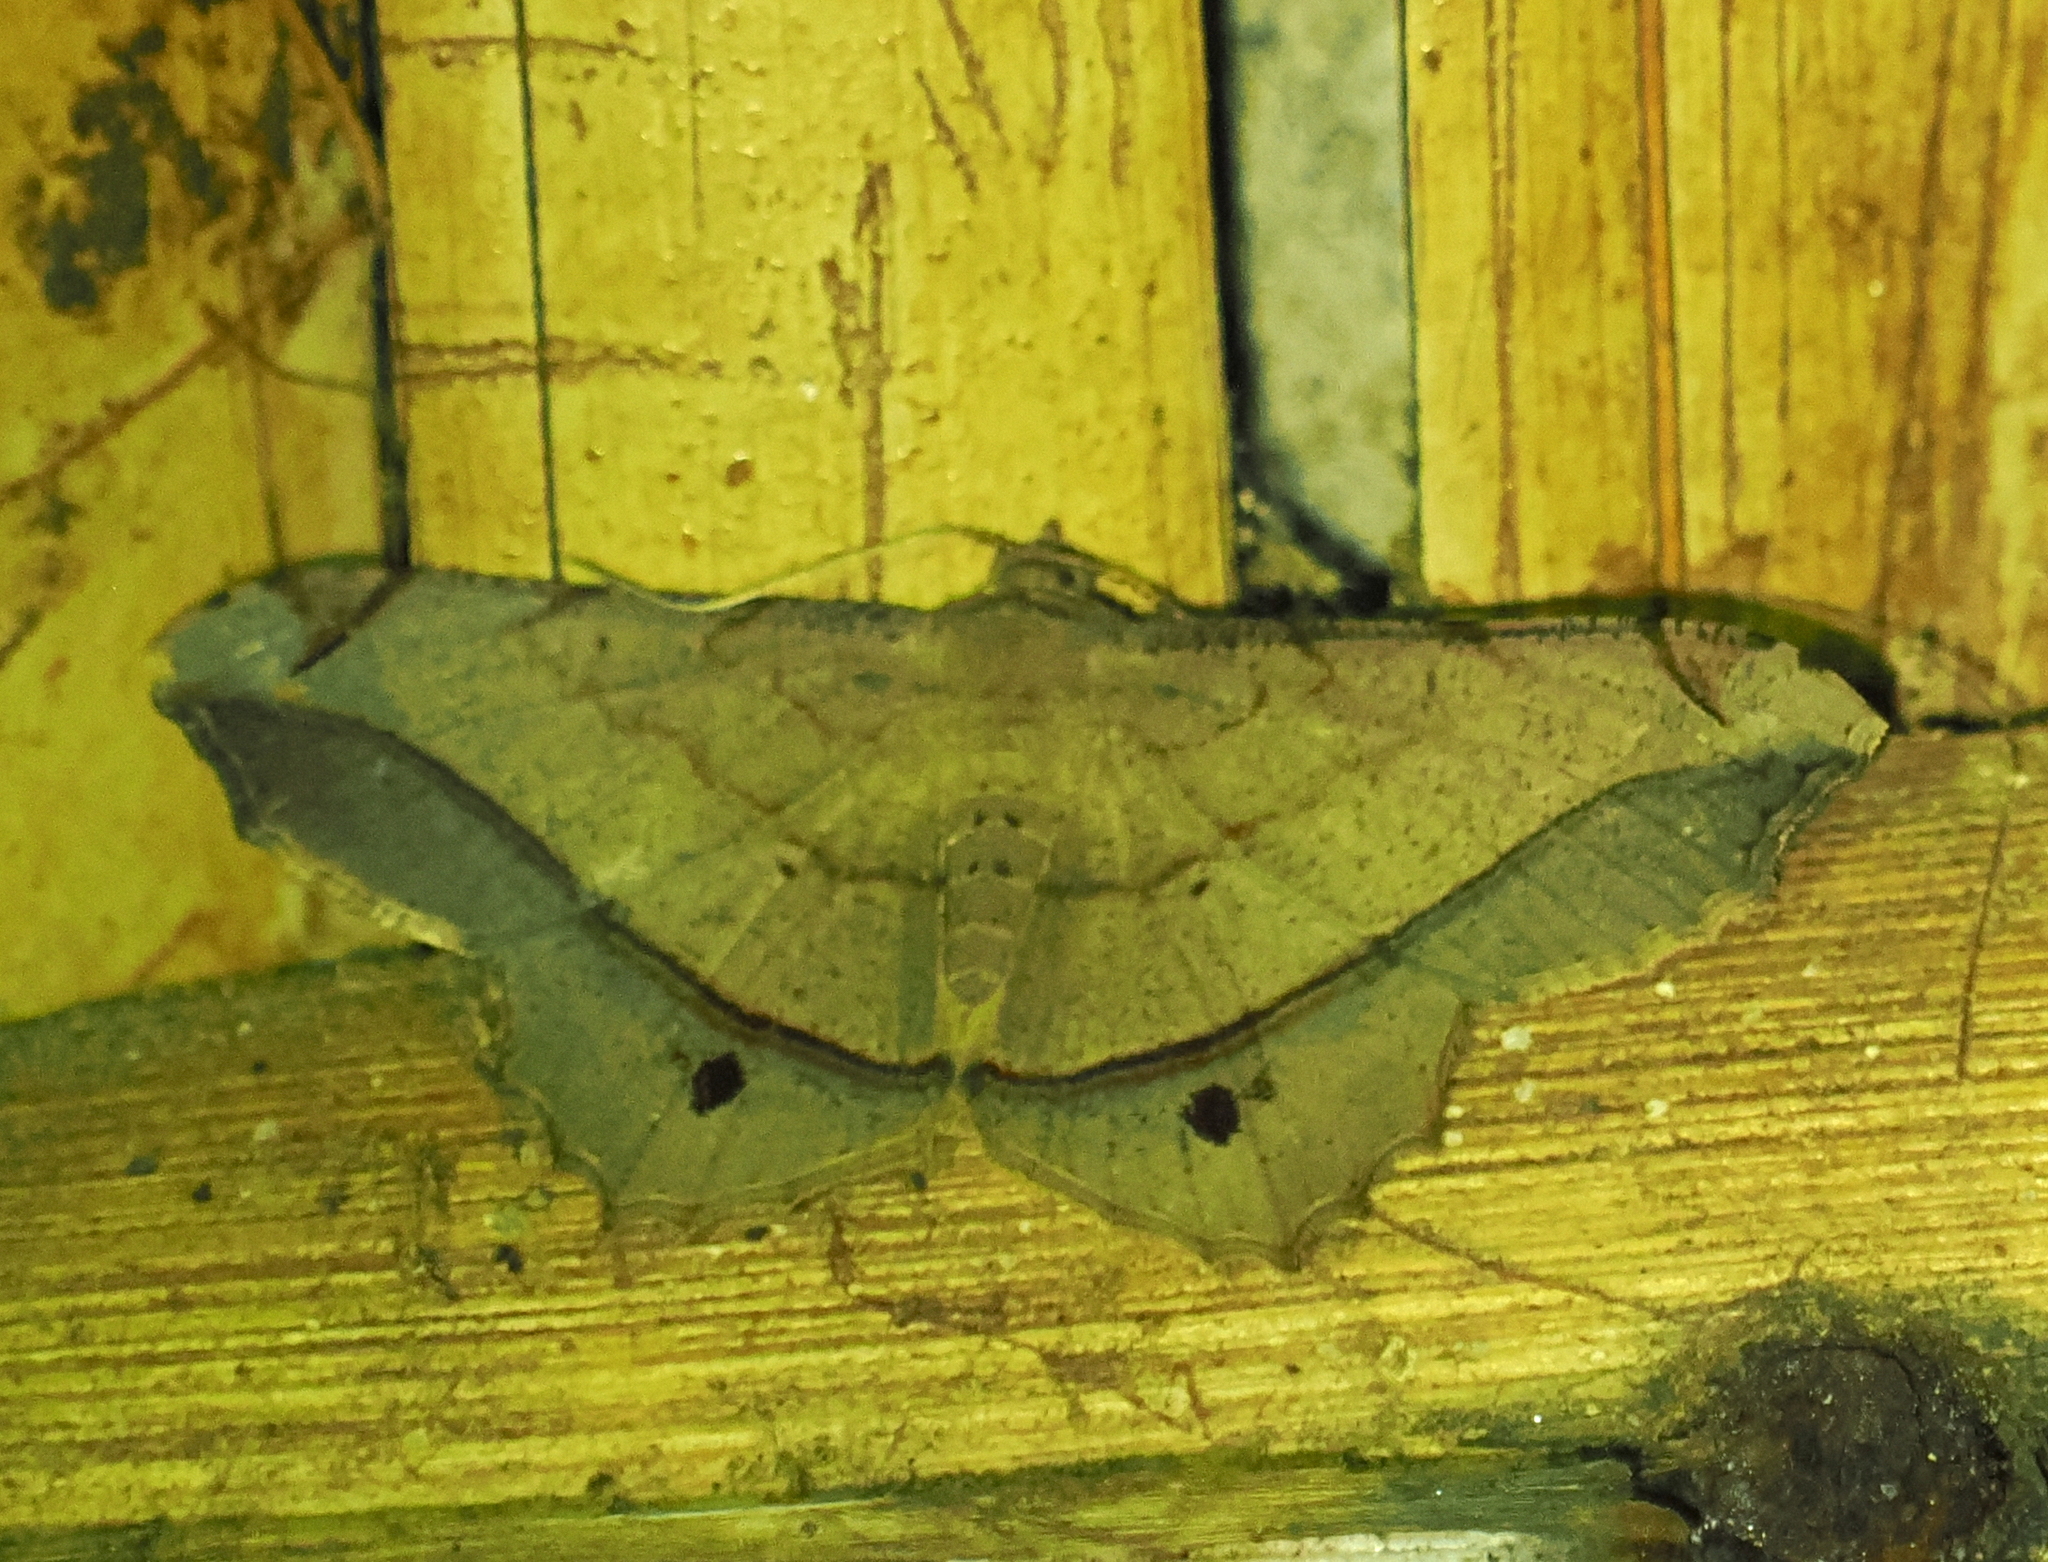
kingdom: Animalia
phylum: Arthropoda
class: Insecta
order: Lepidoptera
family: Geometridae
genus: Chiasmia
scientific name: Chiasmia monticolaria
